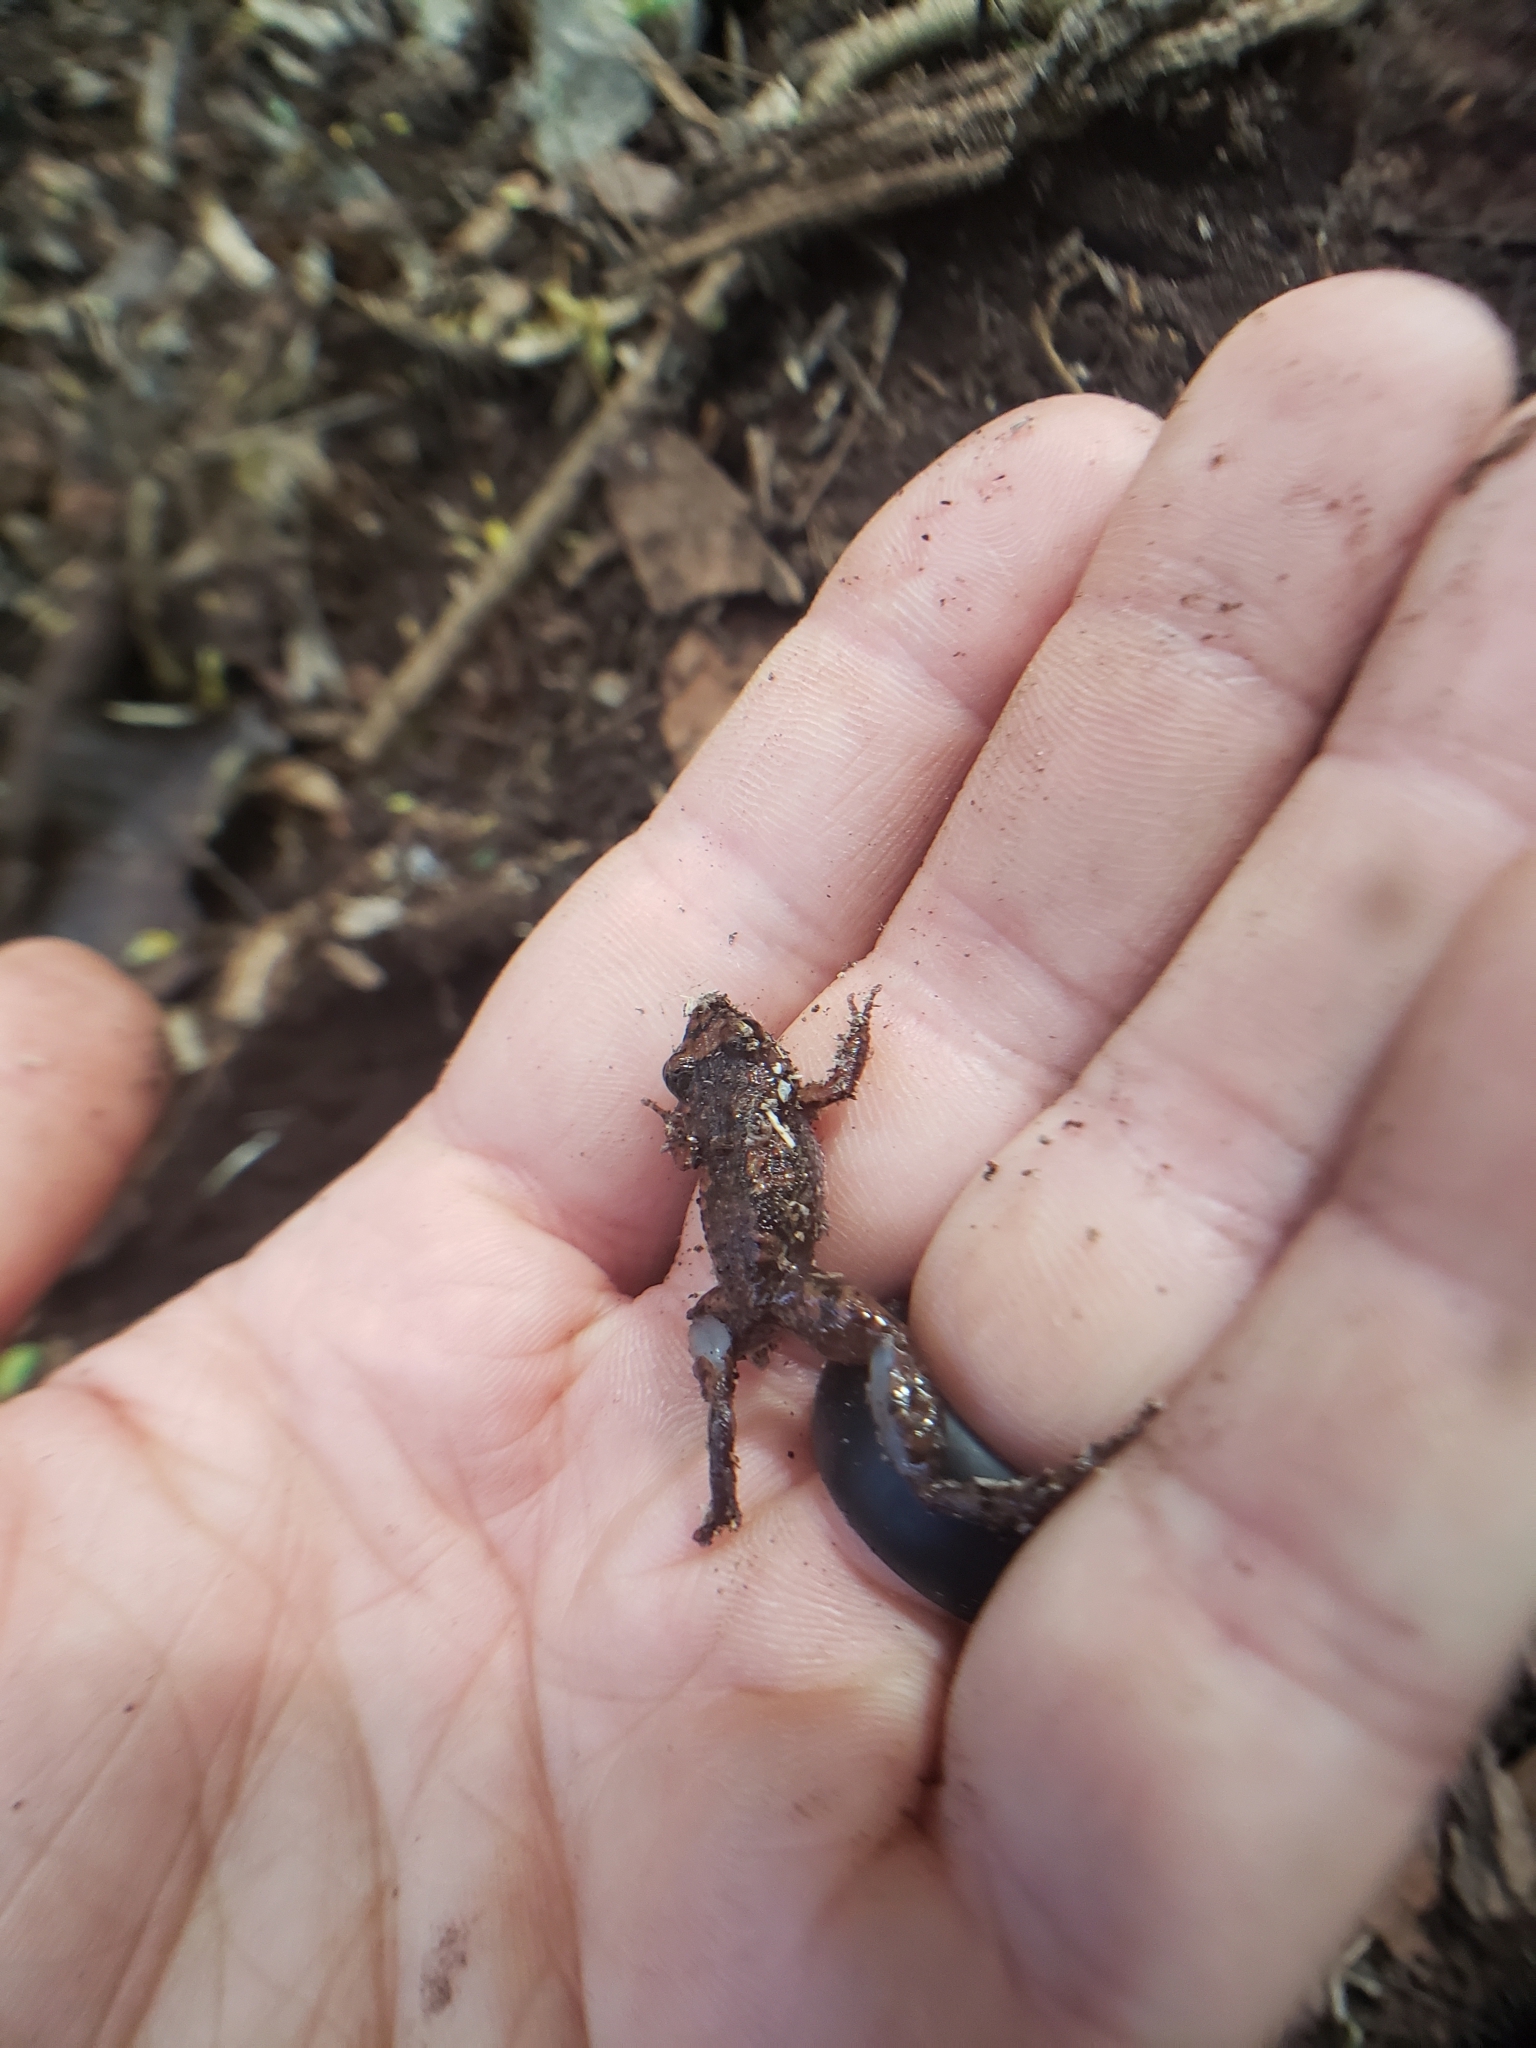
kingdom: Animalia
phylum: Chordata
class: Amphibia
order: Anura
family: Eleutherodactylidae
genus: Eleutherodactylus
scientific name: Eleutherodactylus planirostris
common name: Greenhouse frog
